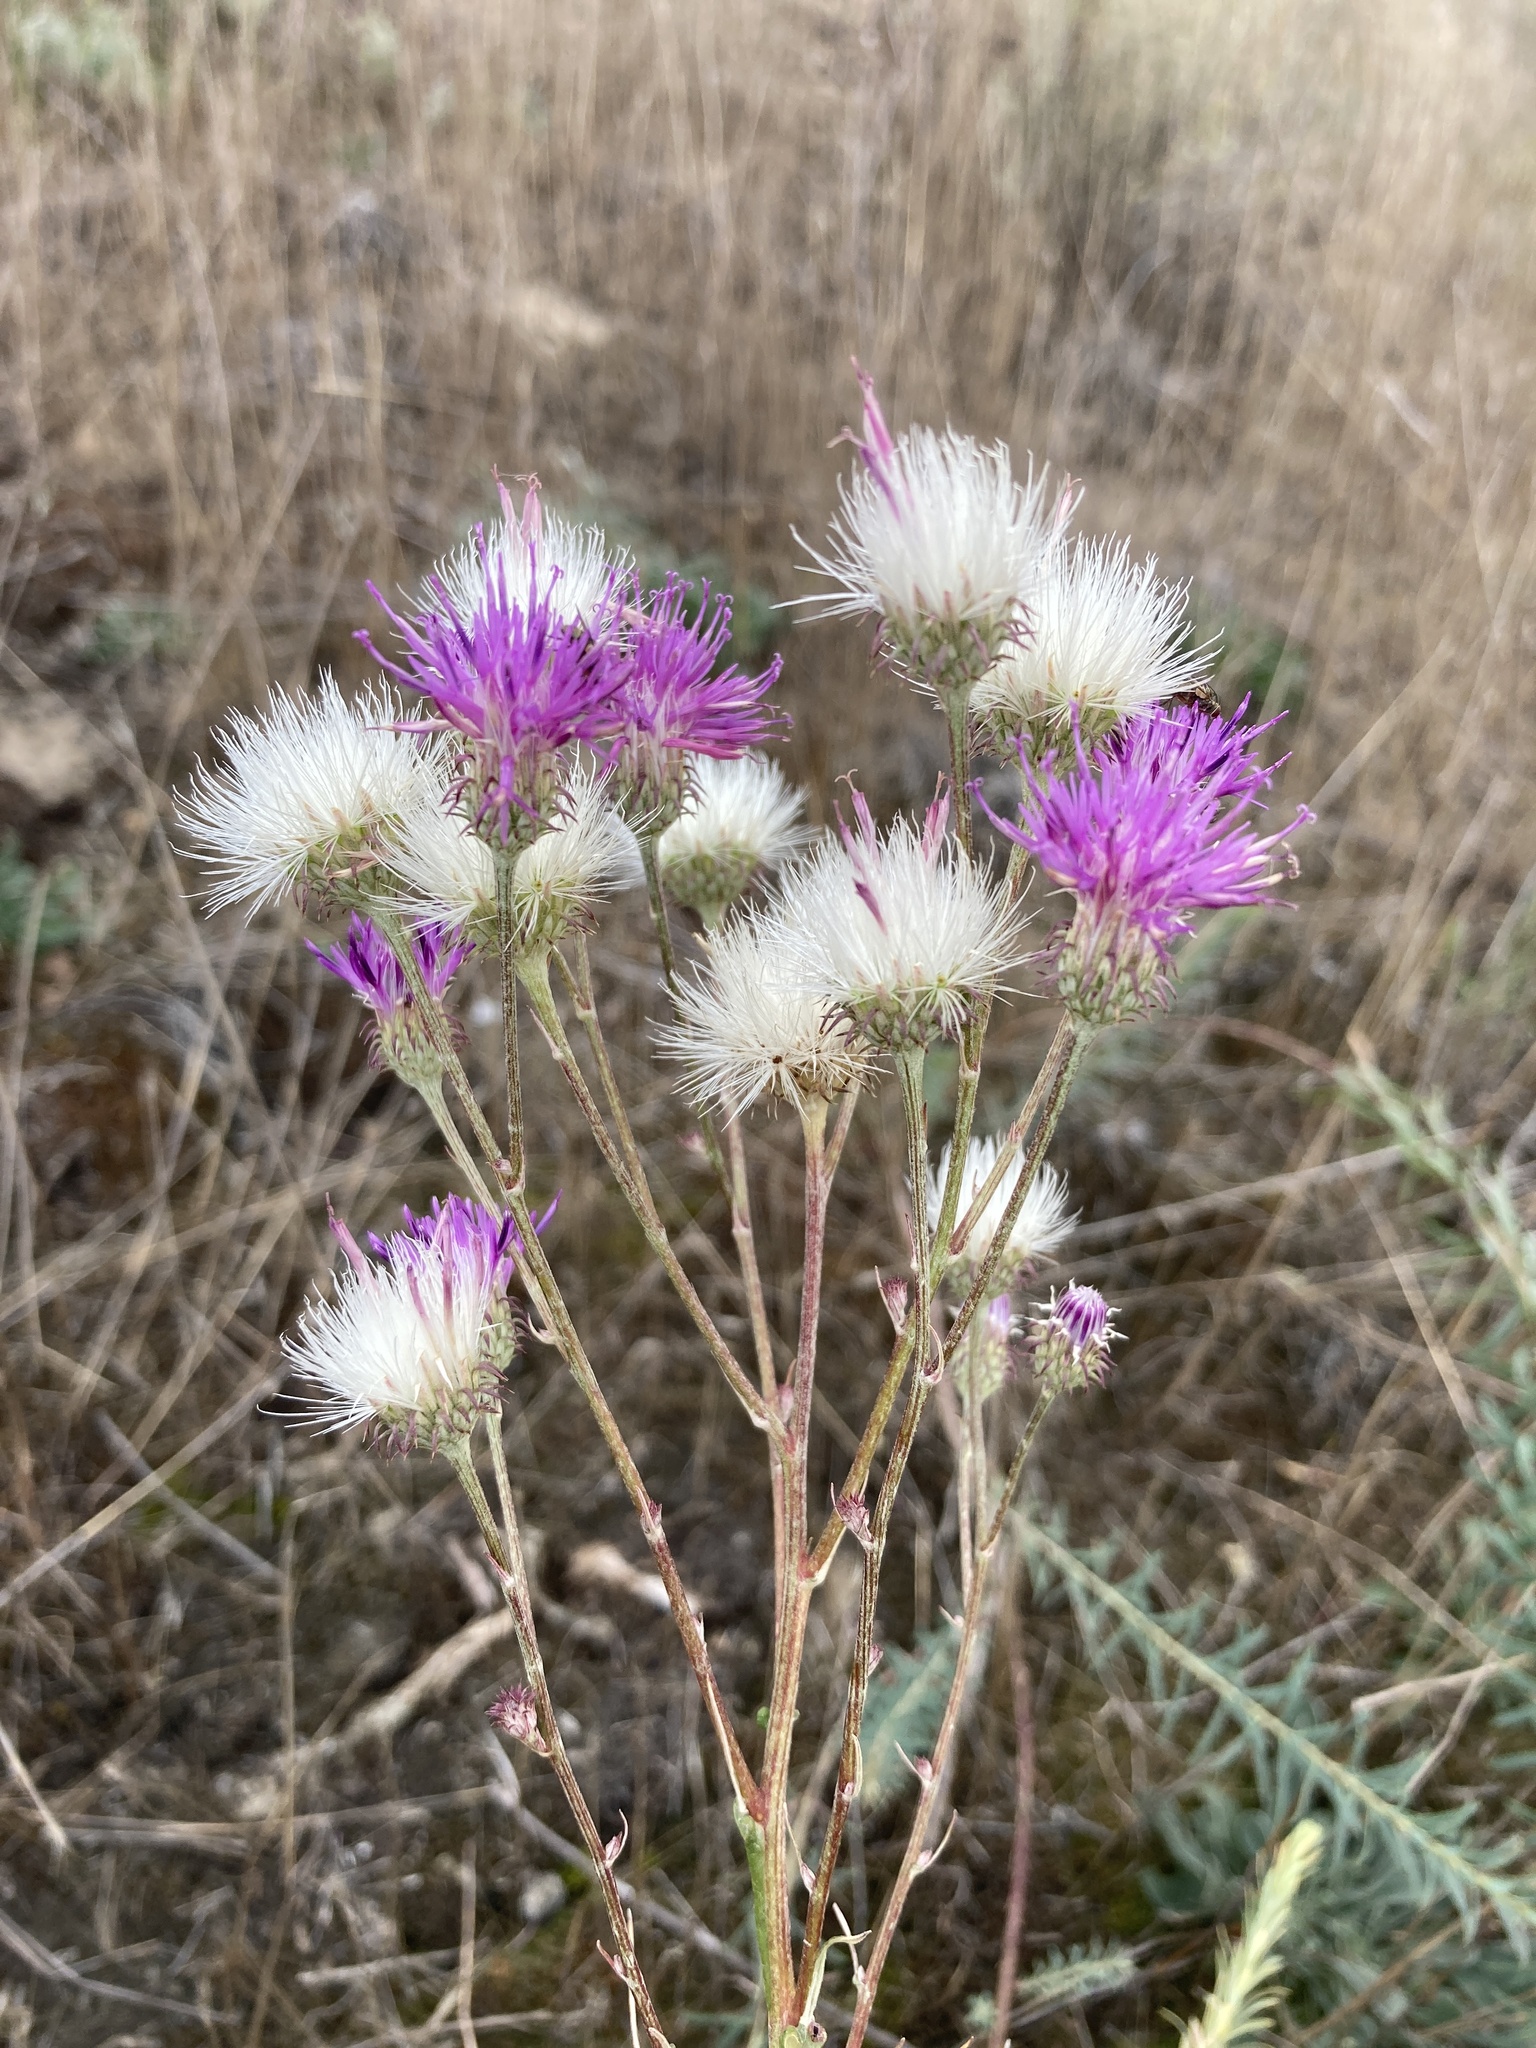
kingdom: Plantae
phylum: Tracheophyta
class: Magnoliopsida
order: Asterales
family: Asteraceae
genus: Jurinea
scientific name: Jurinea cyanoides
